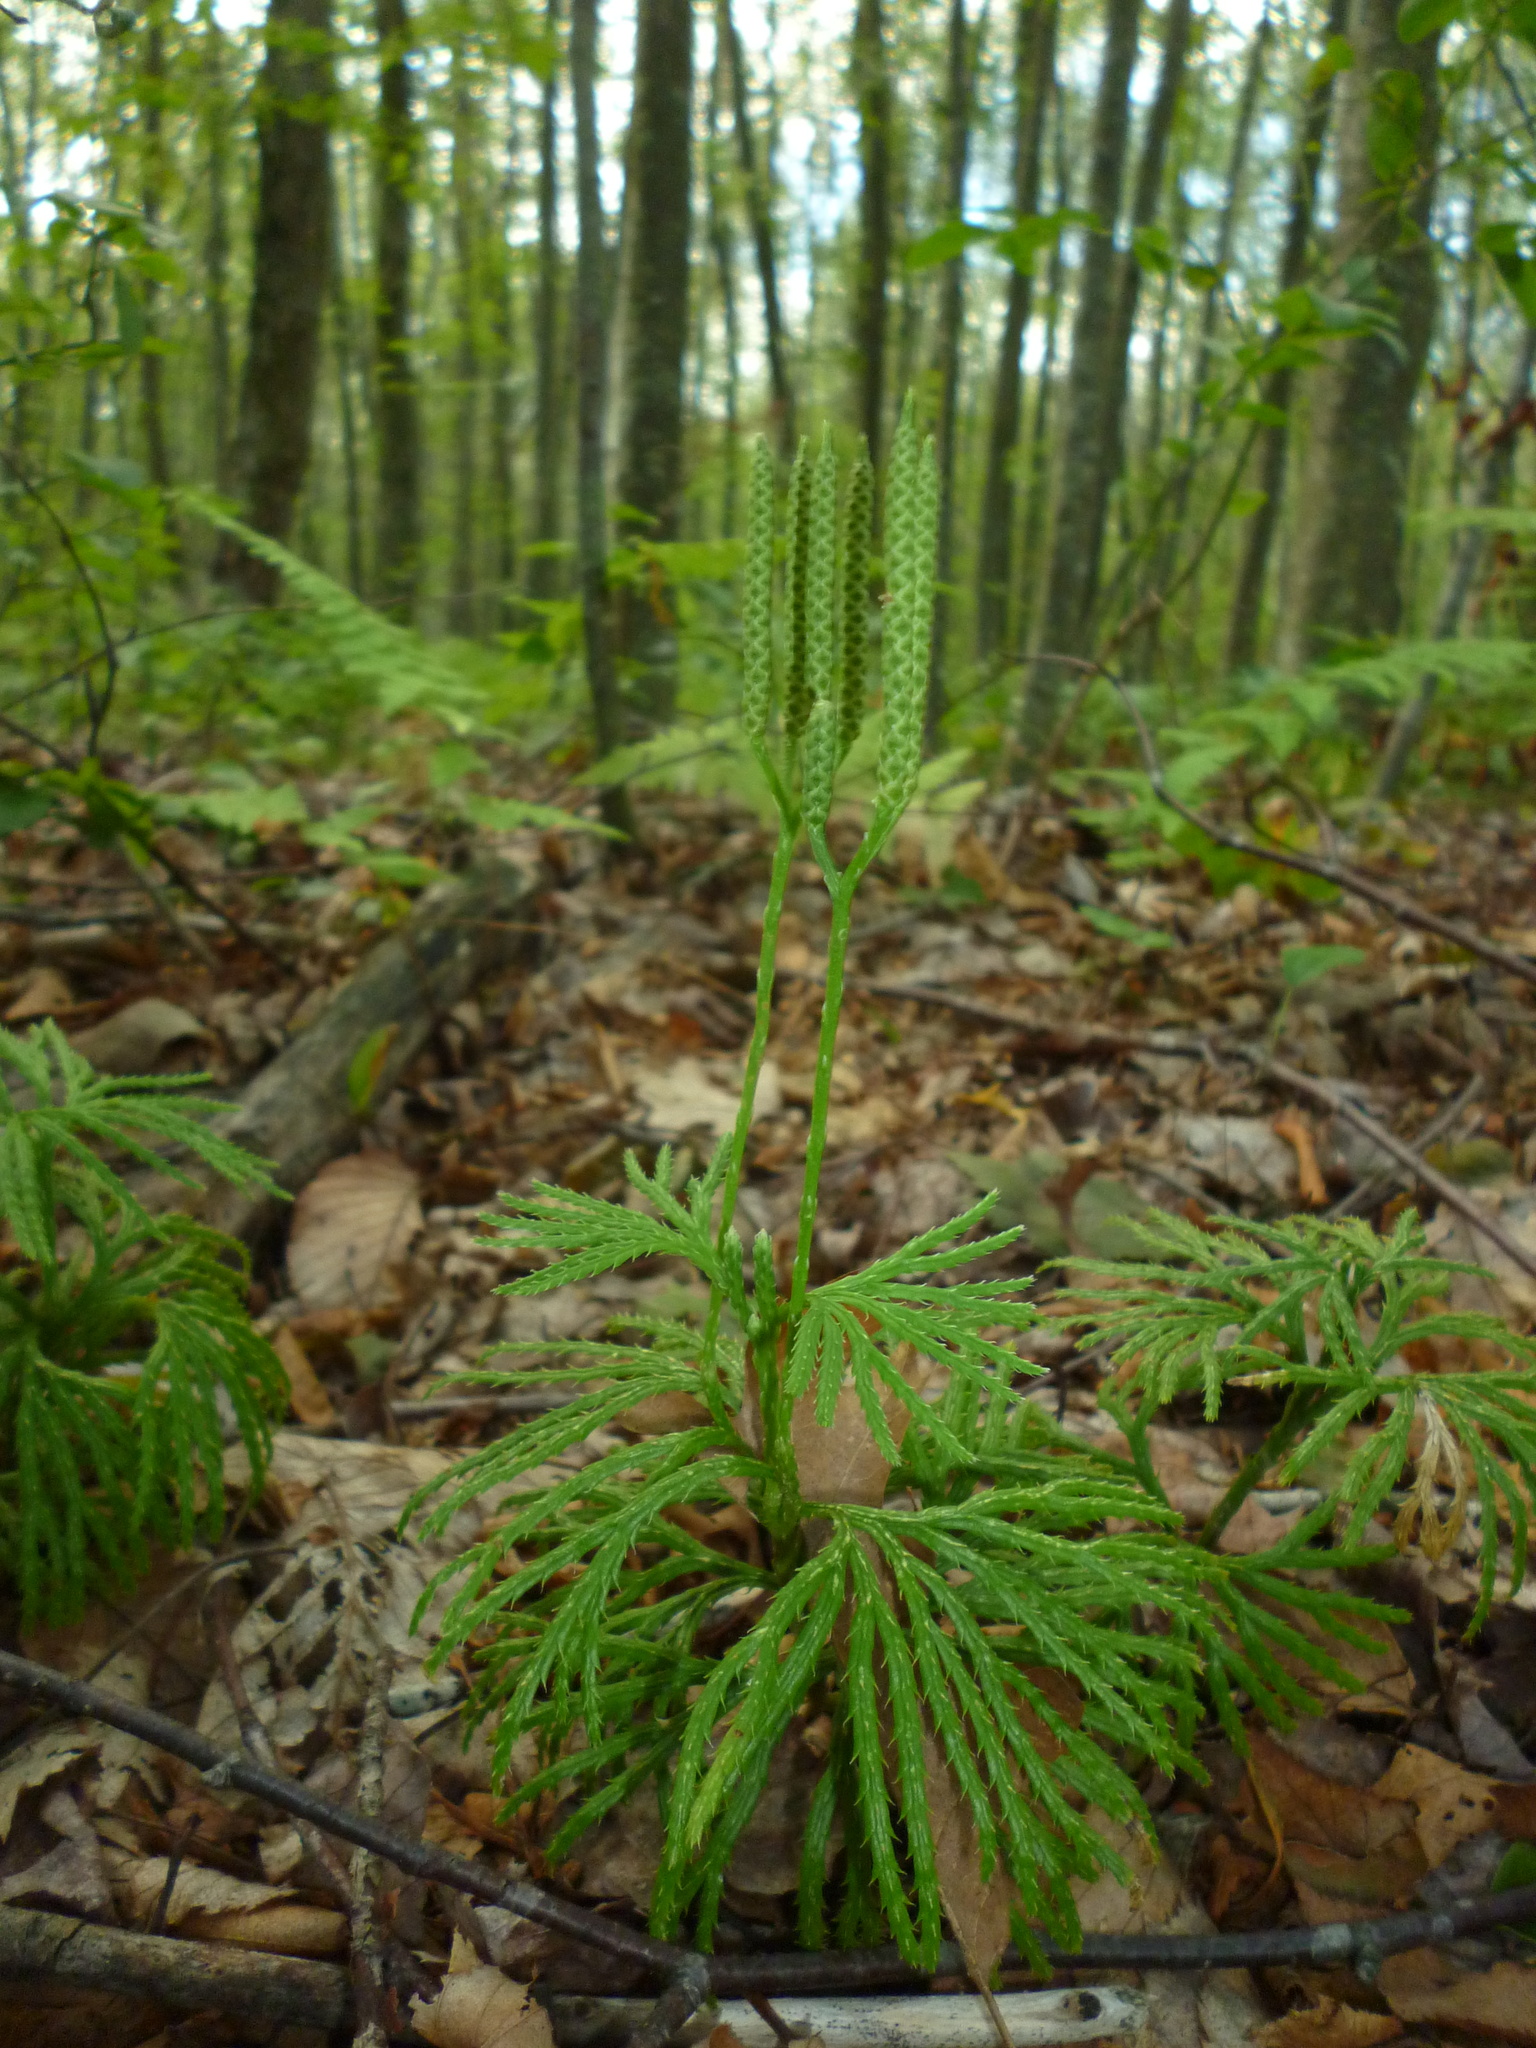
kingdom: Plantae
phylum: Tracheophyta
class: Lycopodiopsida
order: Lycopodiales
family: Lycopodiaceae
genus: Diphasiastrum
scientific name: Diphasiastrum digitatum
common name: Southern running-pine
